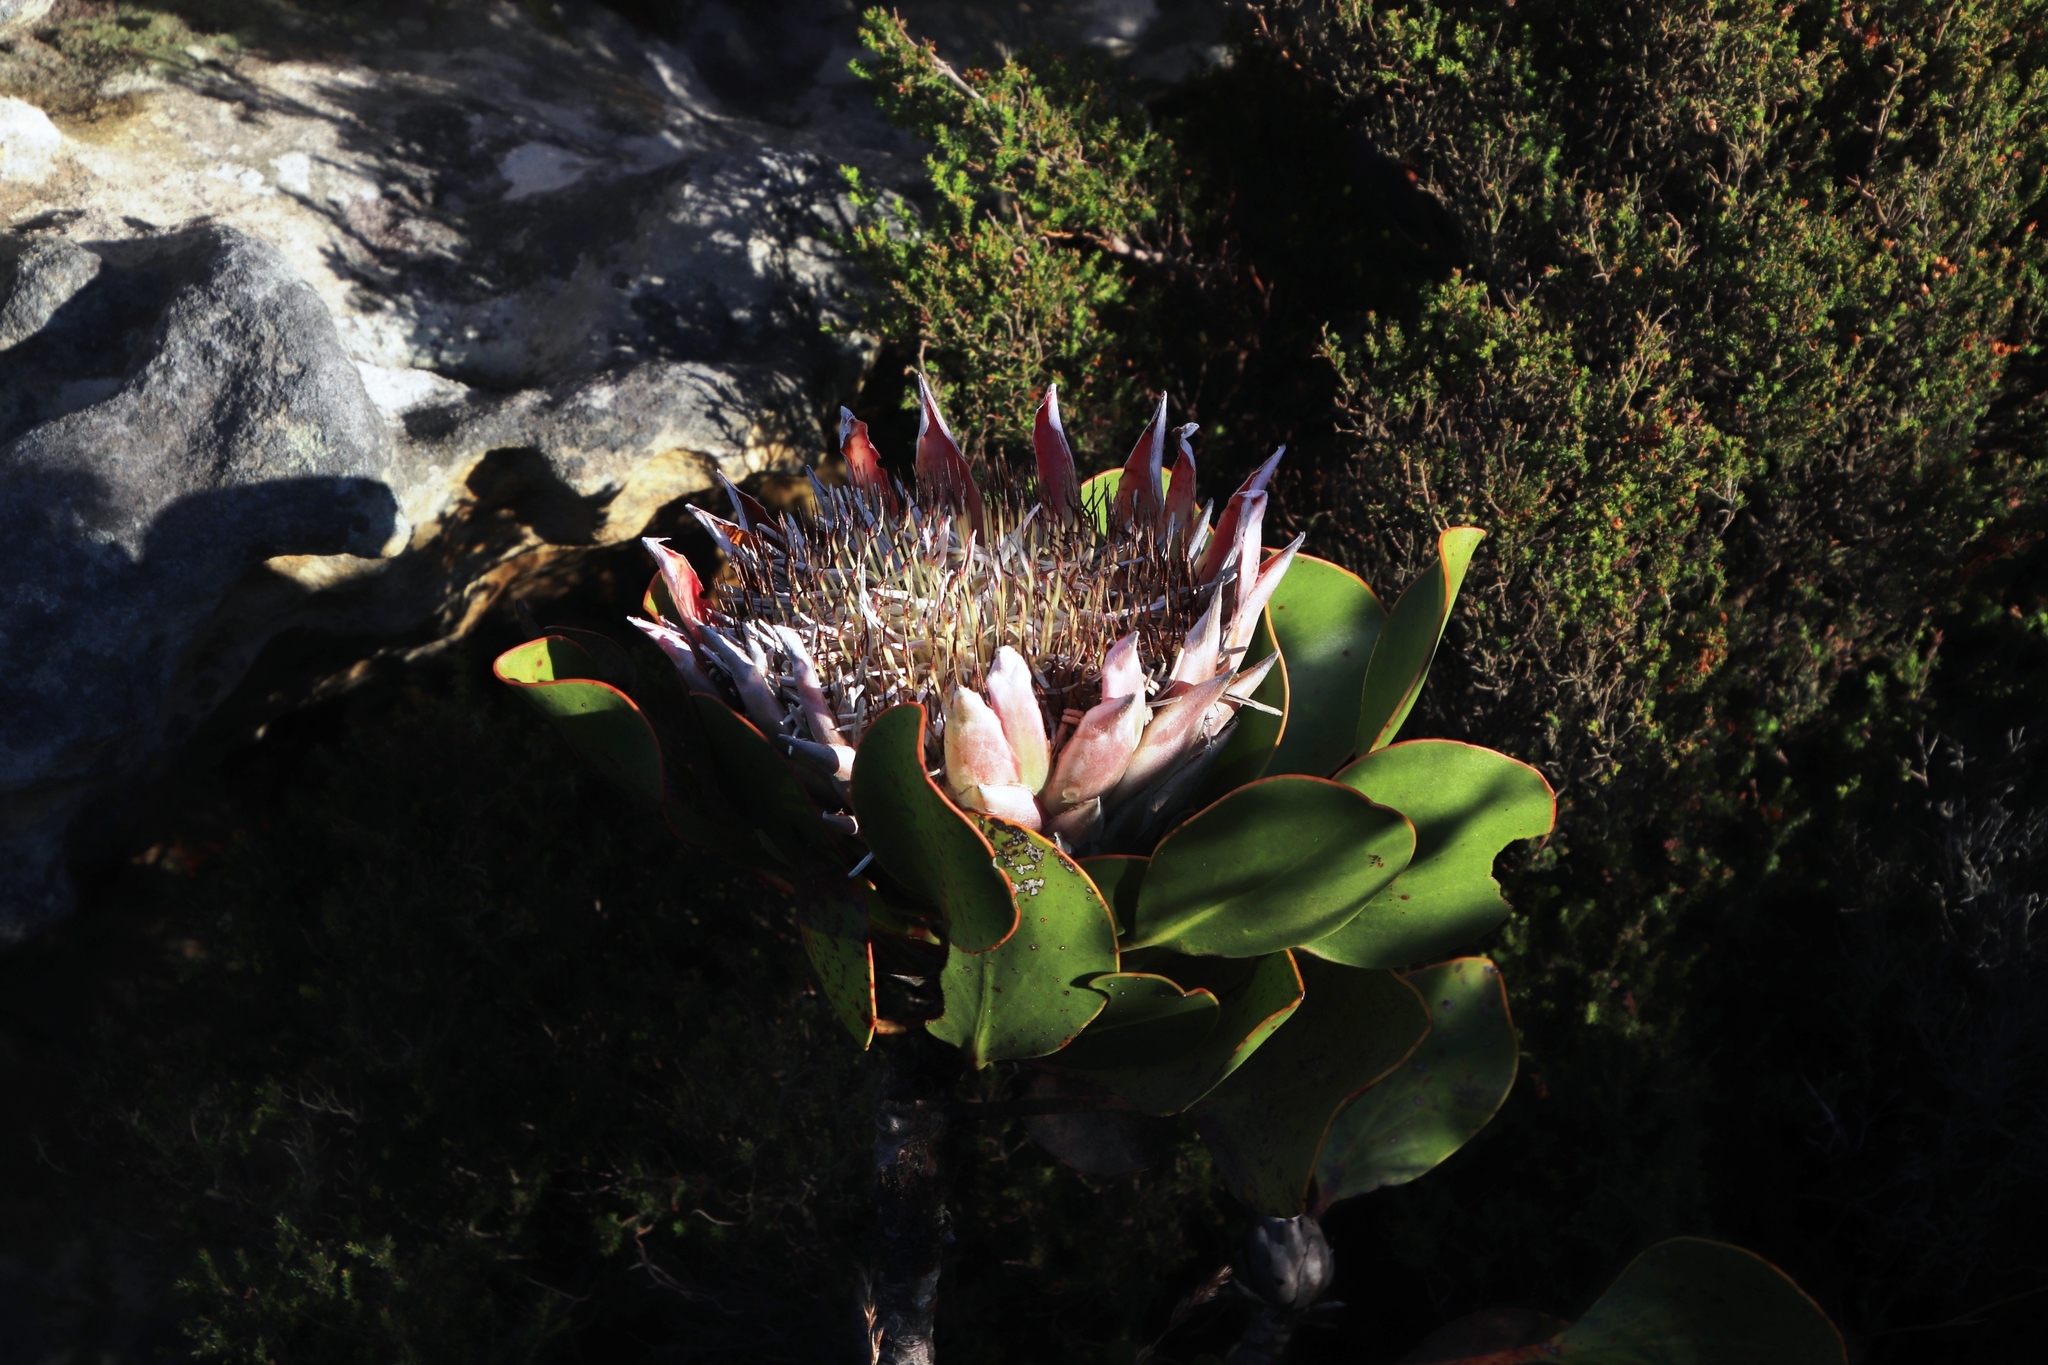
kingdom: Plantae
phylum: Tracheophyta
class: Magnoliopsida
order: Proteales
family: Proteaceae
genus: Protea
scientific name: Protea cynaroides
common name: King protea
